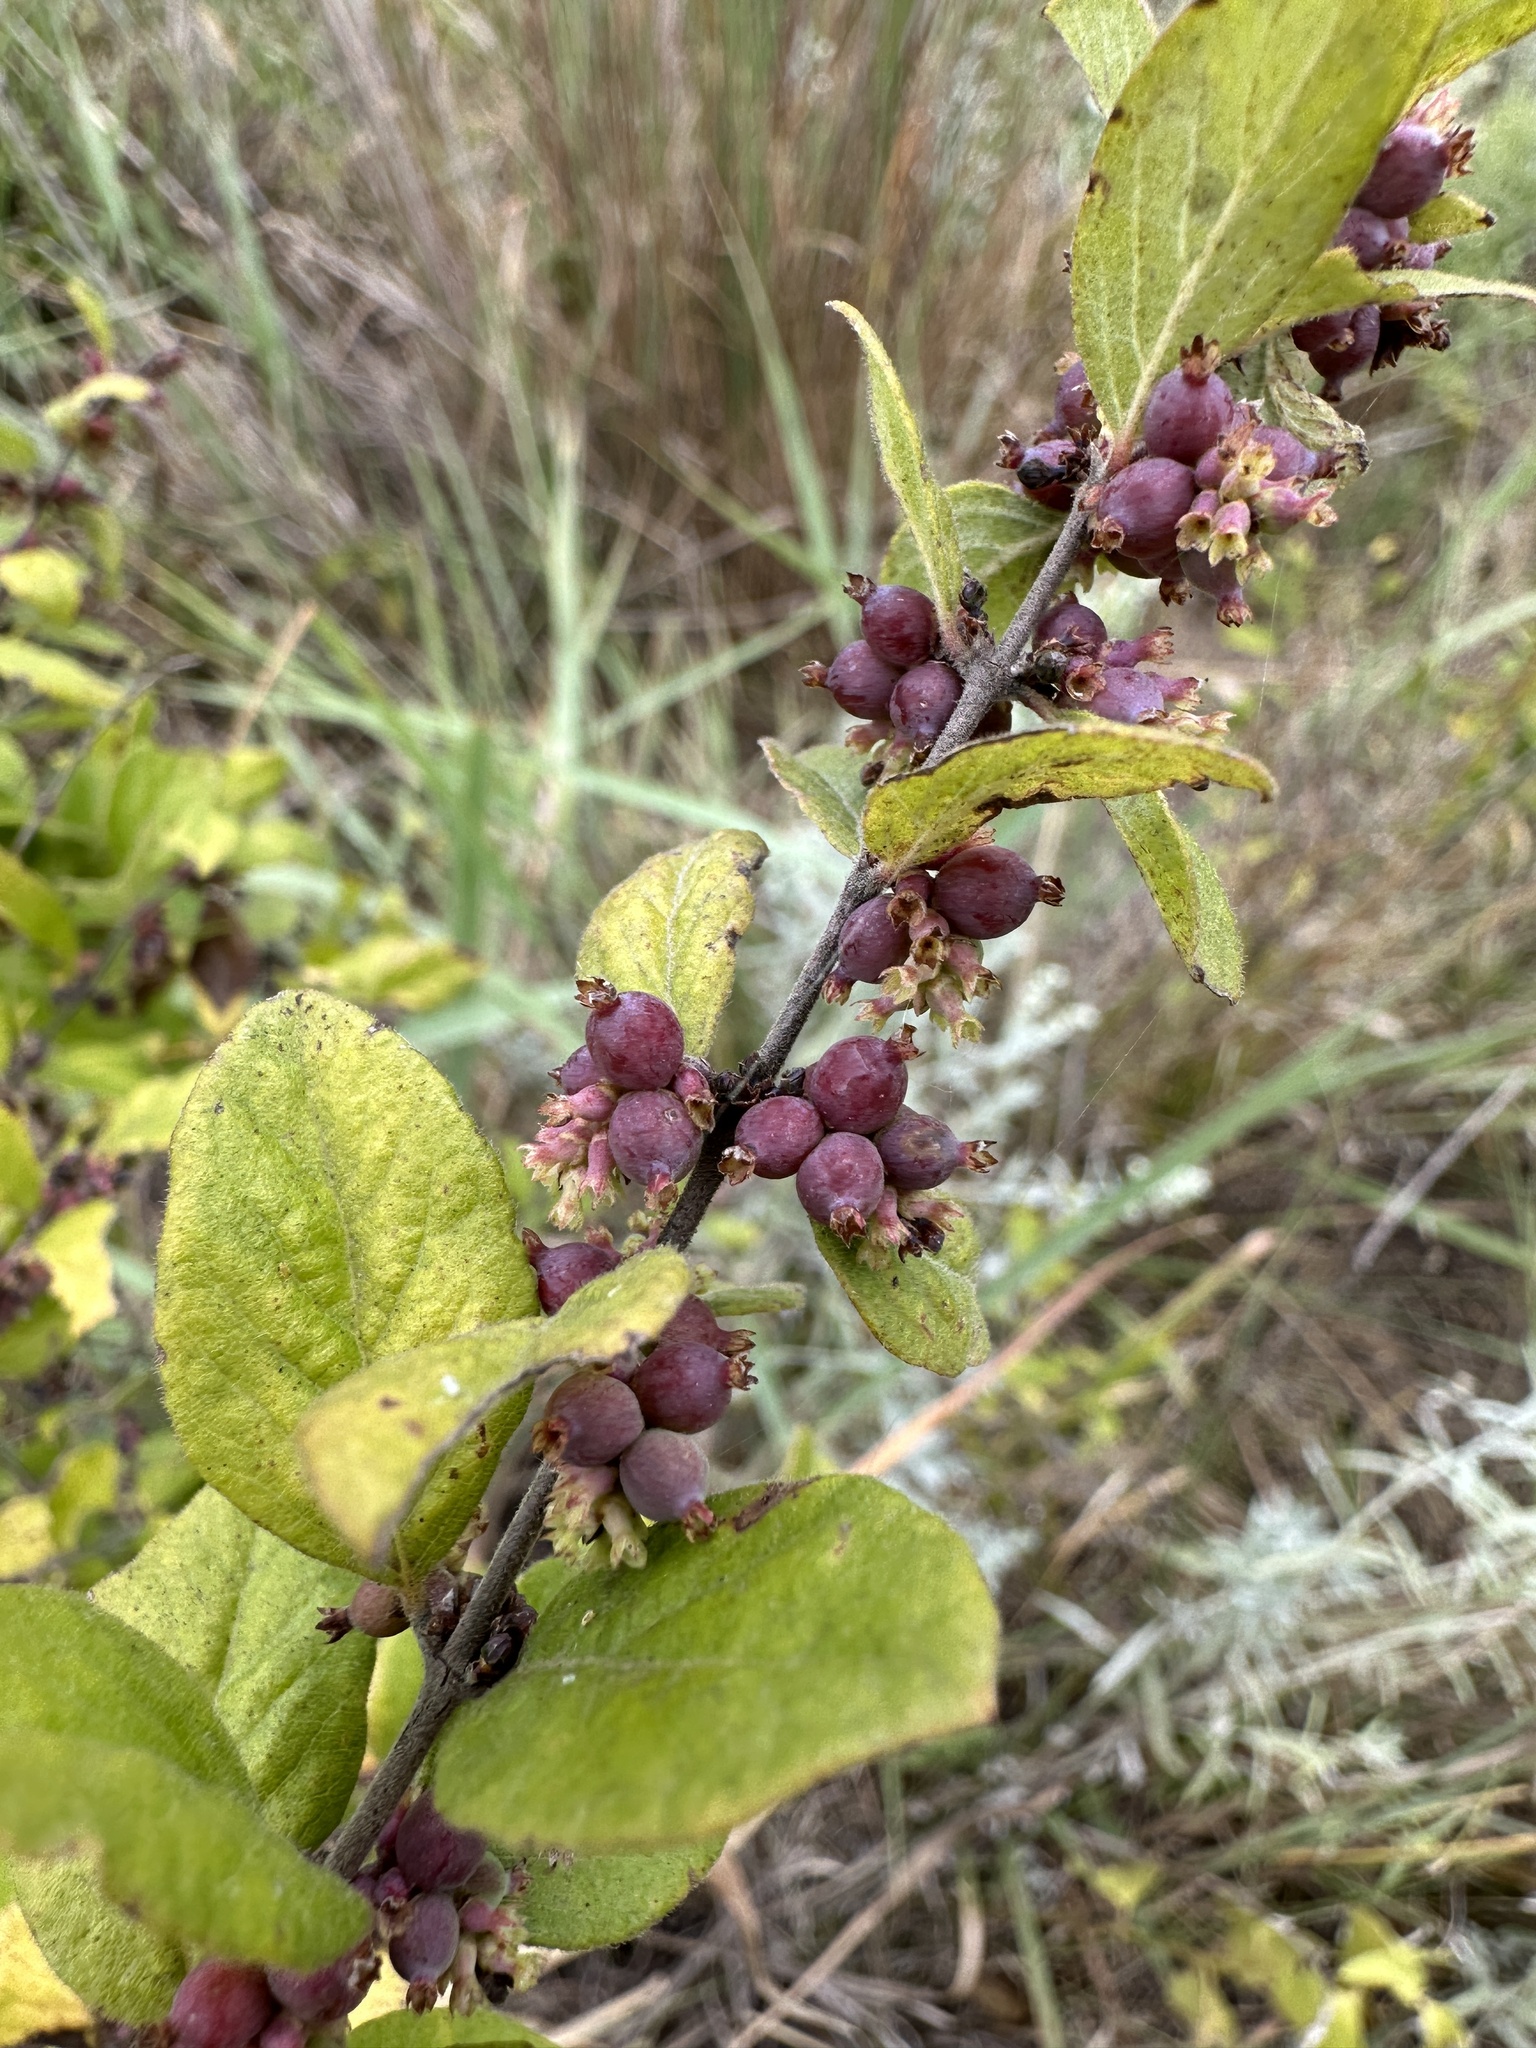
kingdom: Plantae
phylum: Tracheophyta
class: Magnoliopsida
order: Dipsacales
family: Caprifoliaceae
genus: Symphoricarpos
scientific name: Symphoricarpos orbiculatus
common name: Coralberry
